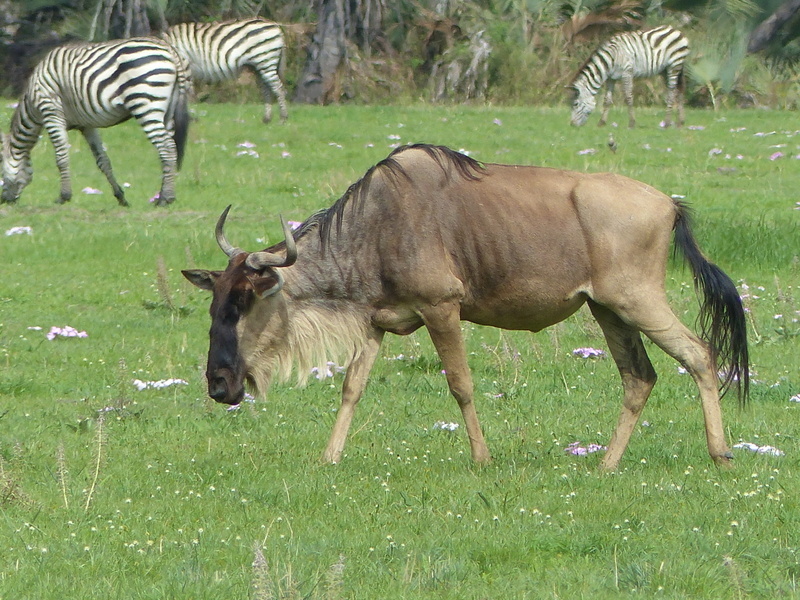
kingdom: Animalia
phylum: Chordata
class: Mammalia
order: Artiodactyla
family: Bovidae
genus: Connochaetes
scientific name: Connochaetes taurinus
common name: Blue wildebeest
